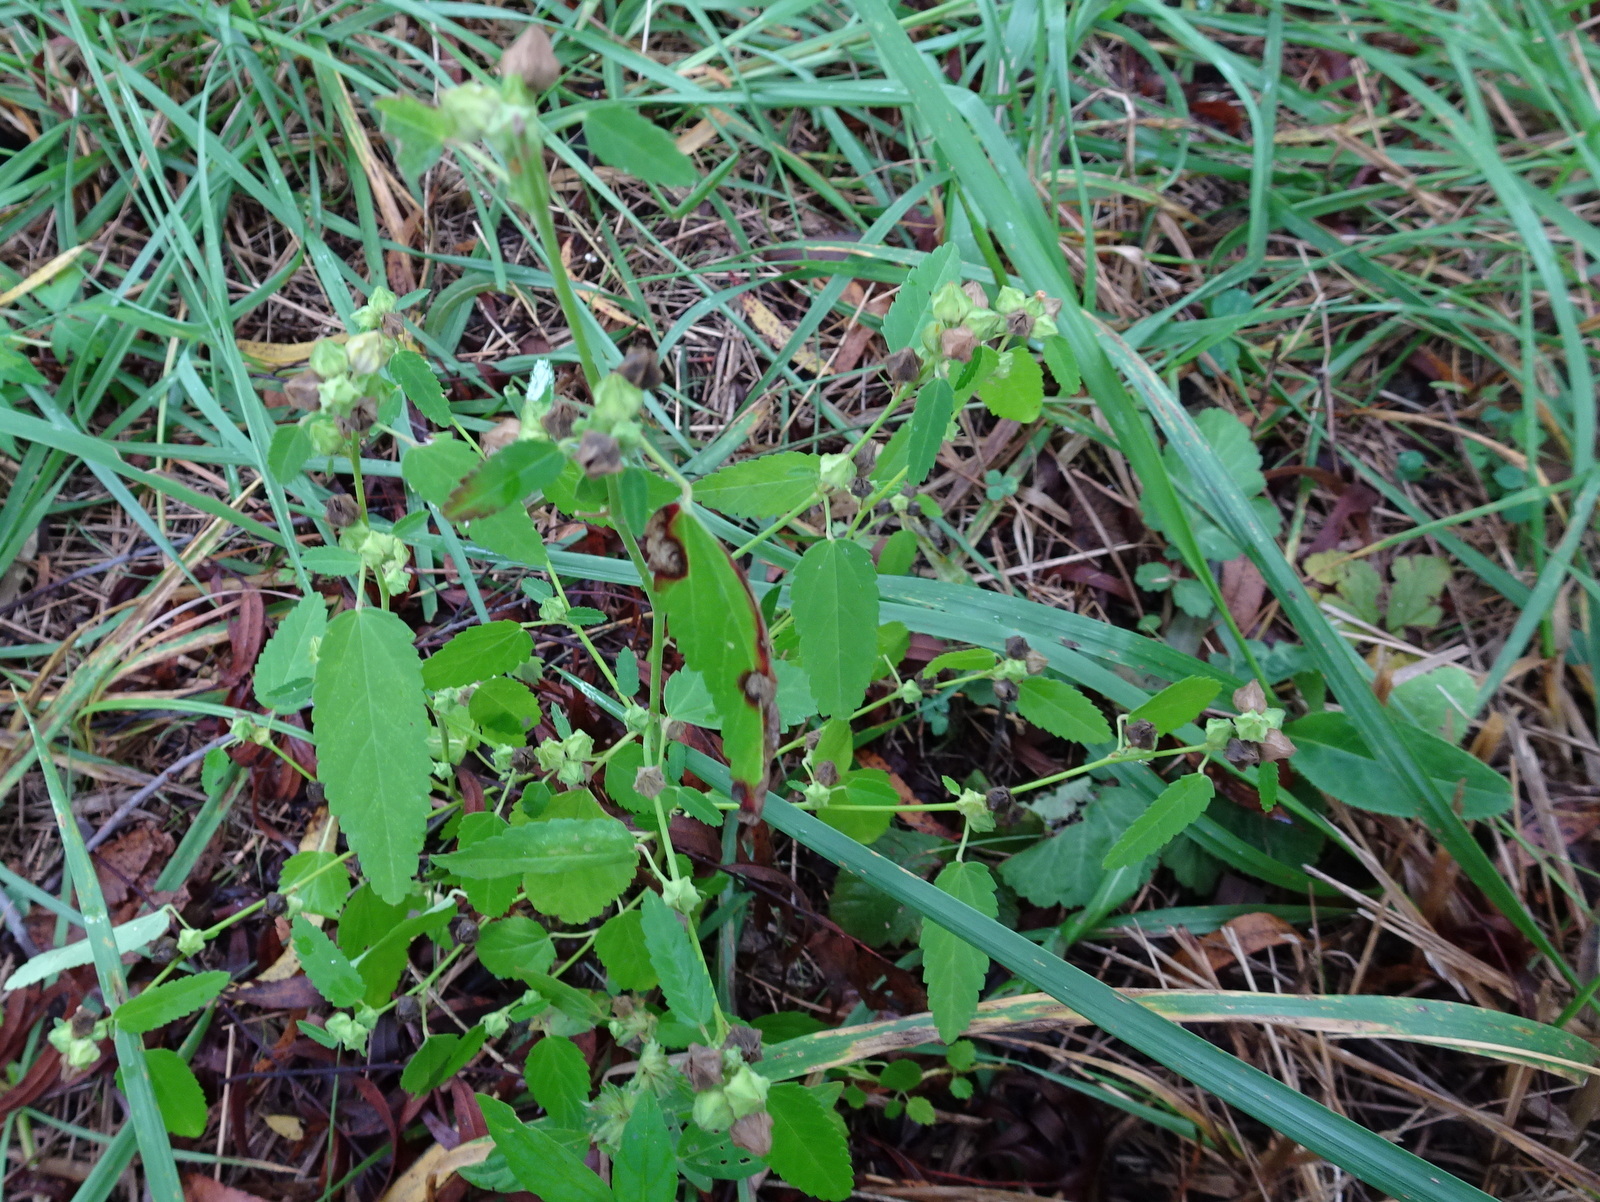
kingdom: Plantae
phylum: Tracheophyta
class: Magnoliopsida
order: Malvales
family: Malvaceae
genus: Sida
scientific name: Sida spinosa
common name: Prickly fanpetals
